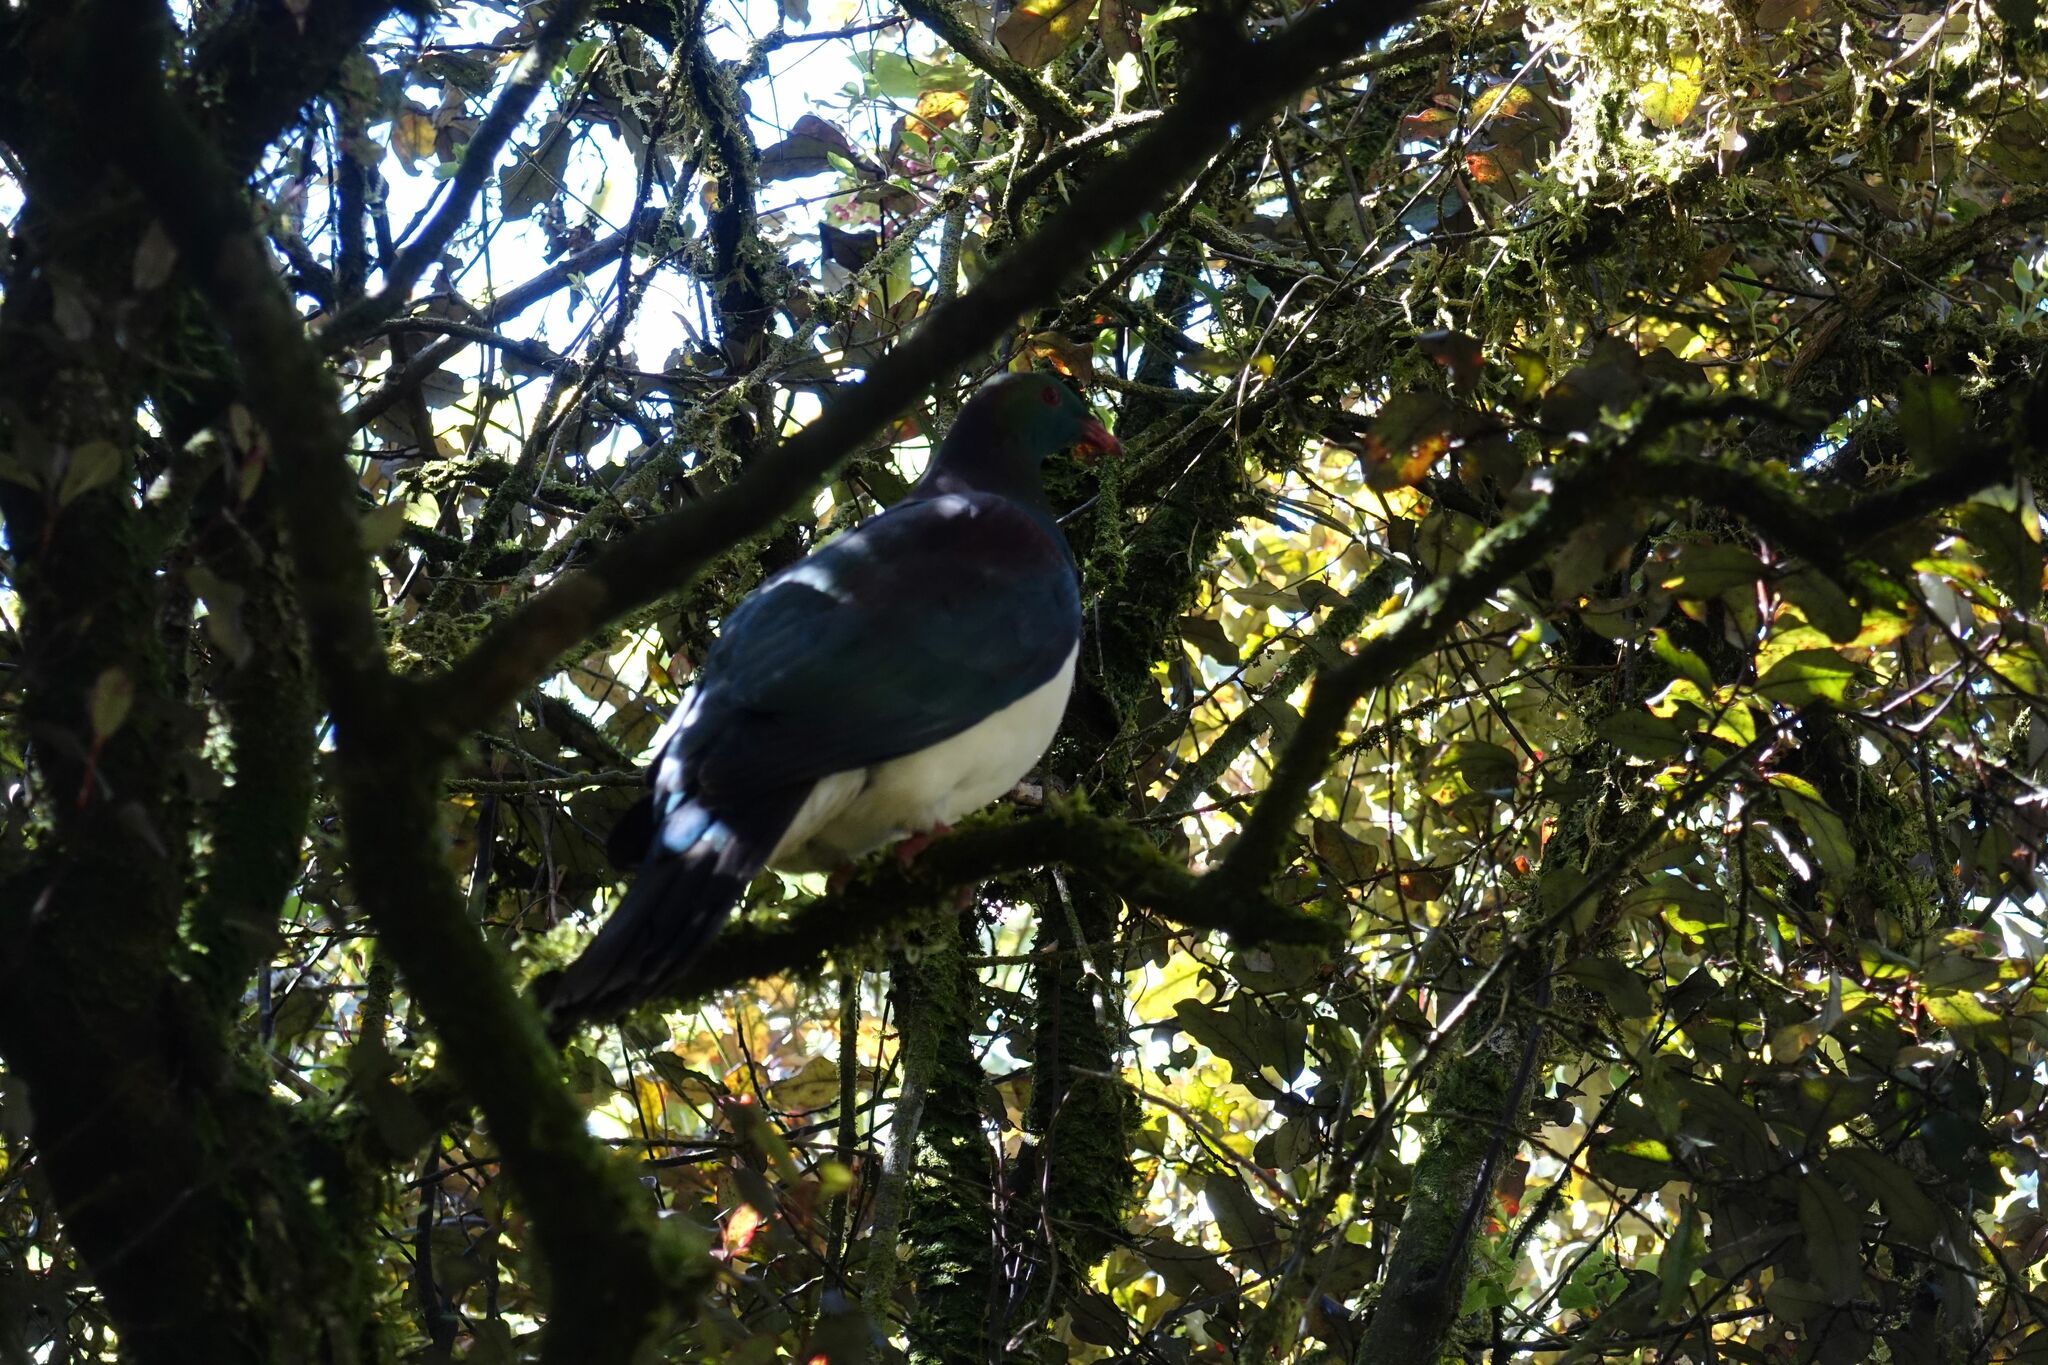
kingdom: Animalia
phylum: Chordata
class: Aves
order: Columbiformes
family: Columbidae
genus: Hemiphaga
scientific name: Hemiphaga novaeseelandiae
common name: New zealand pigeon
